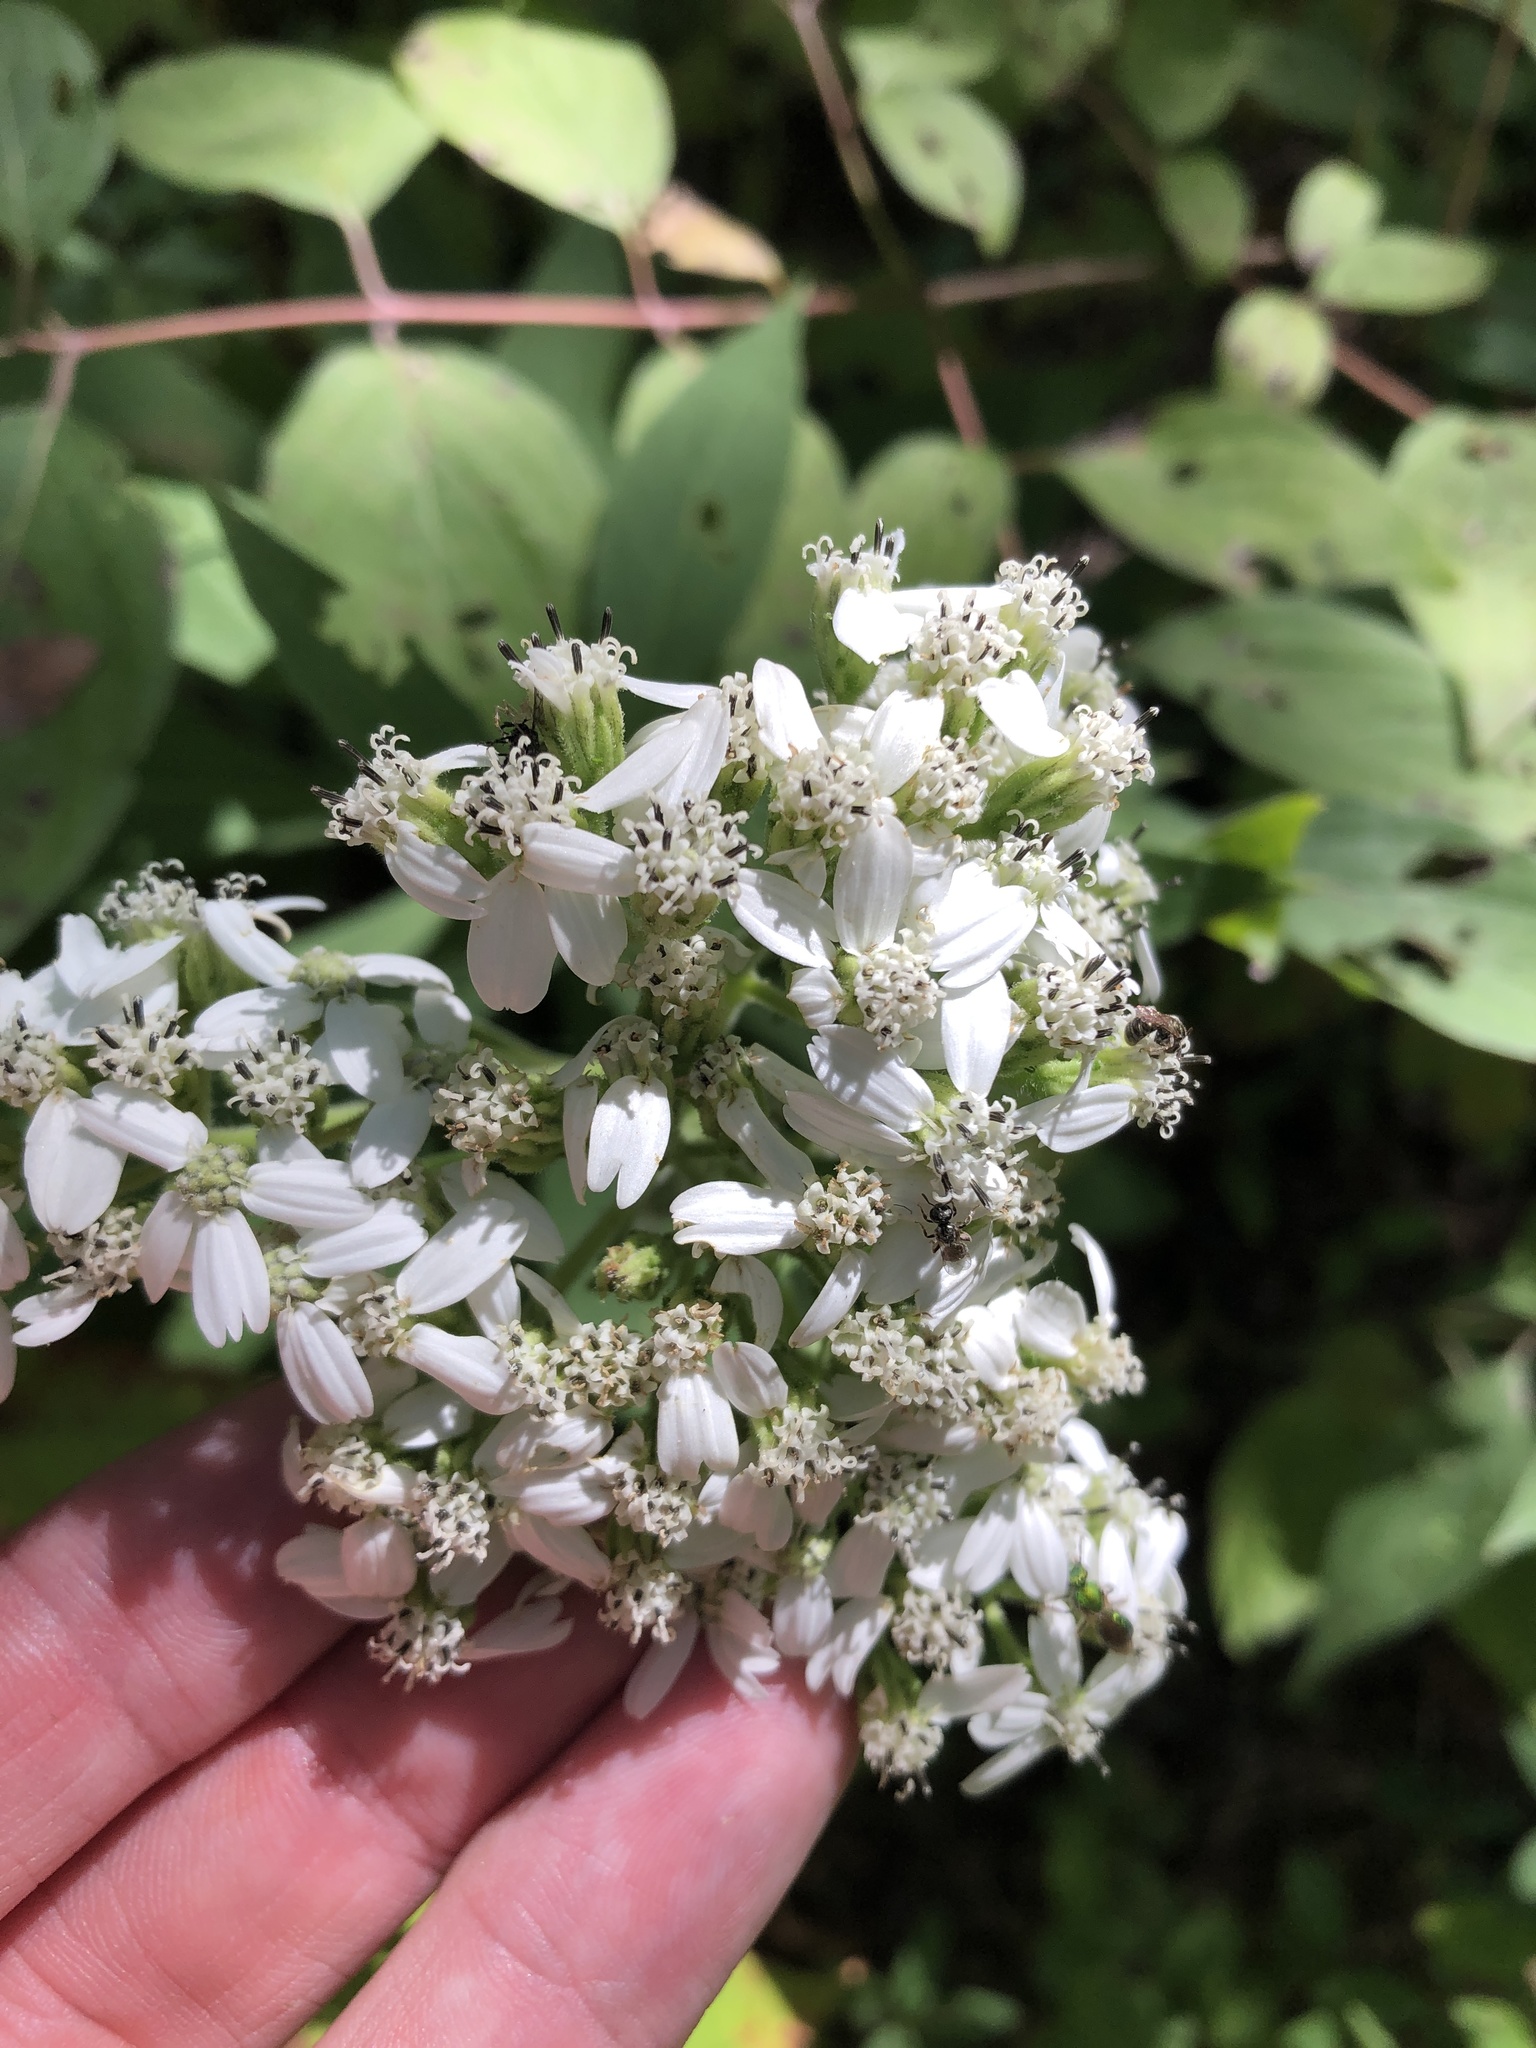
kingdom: Plantae
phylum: Tracheophyta
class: Magnoliopsida
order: Asterales
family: Asteraceae
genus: Verbesina
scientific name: Verbesina virginica
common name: Frostweed
